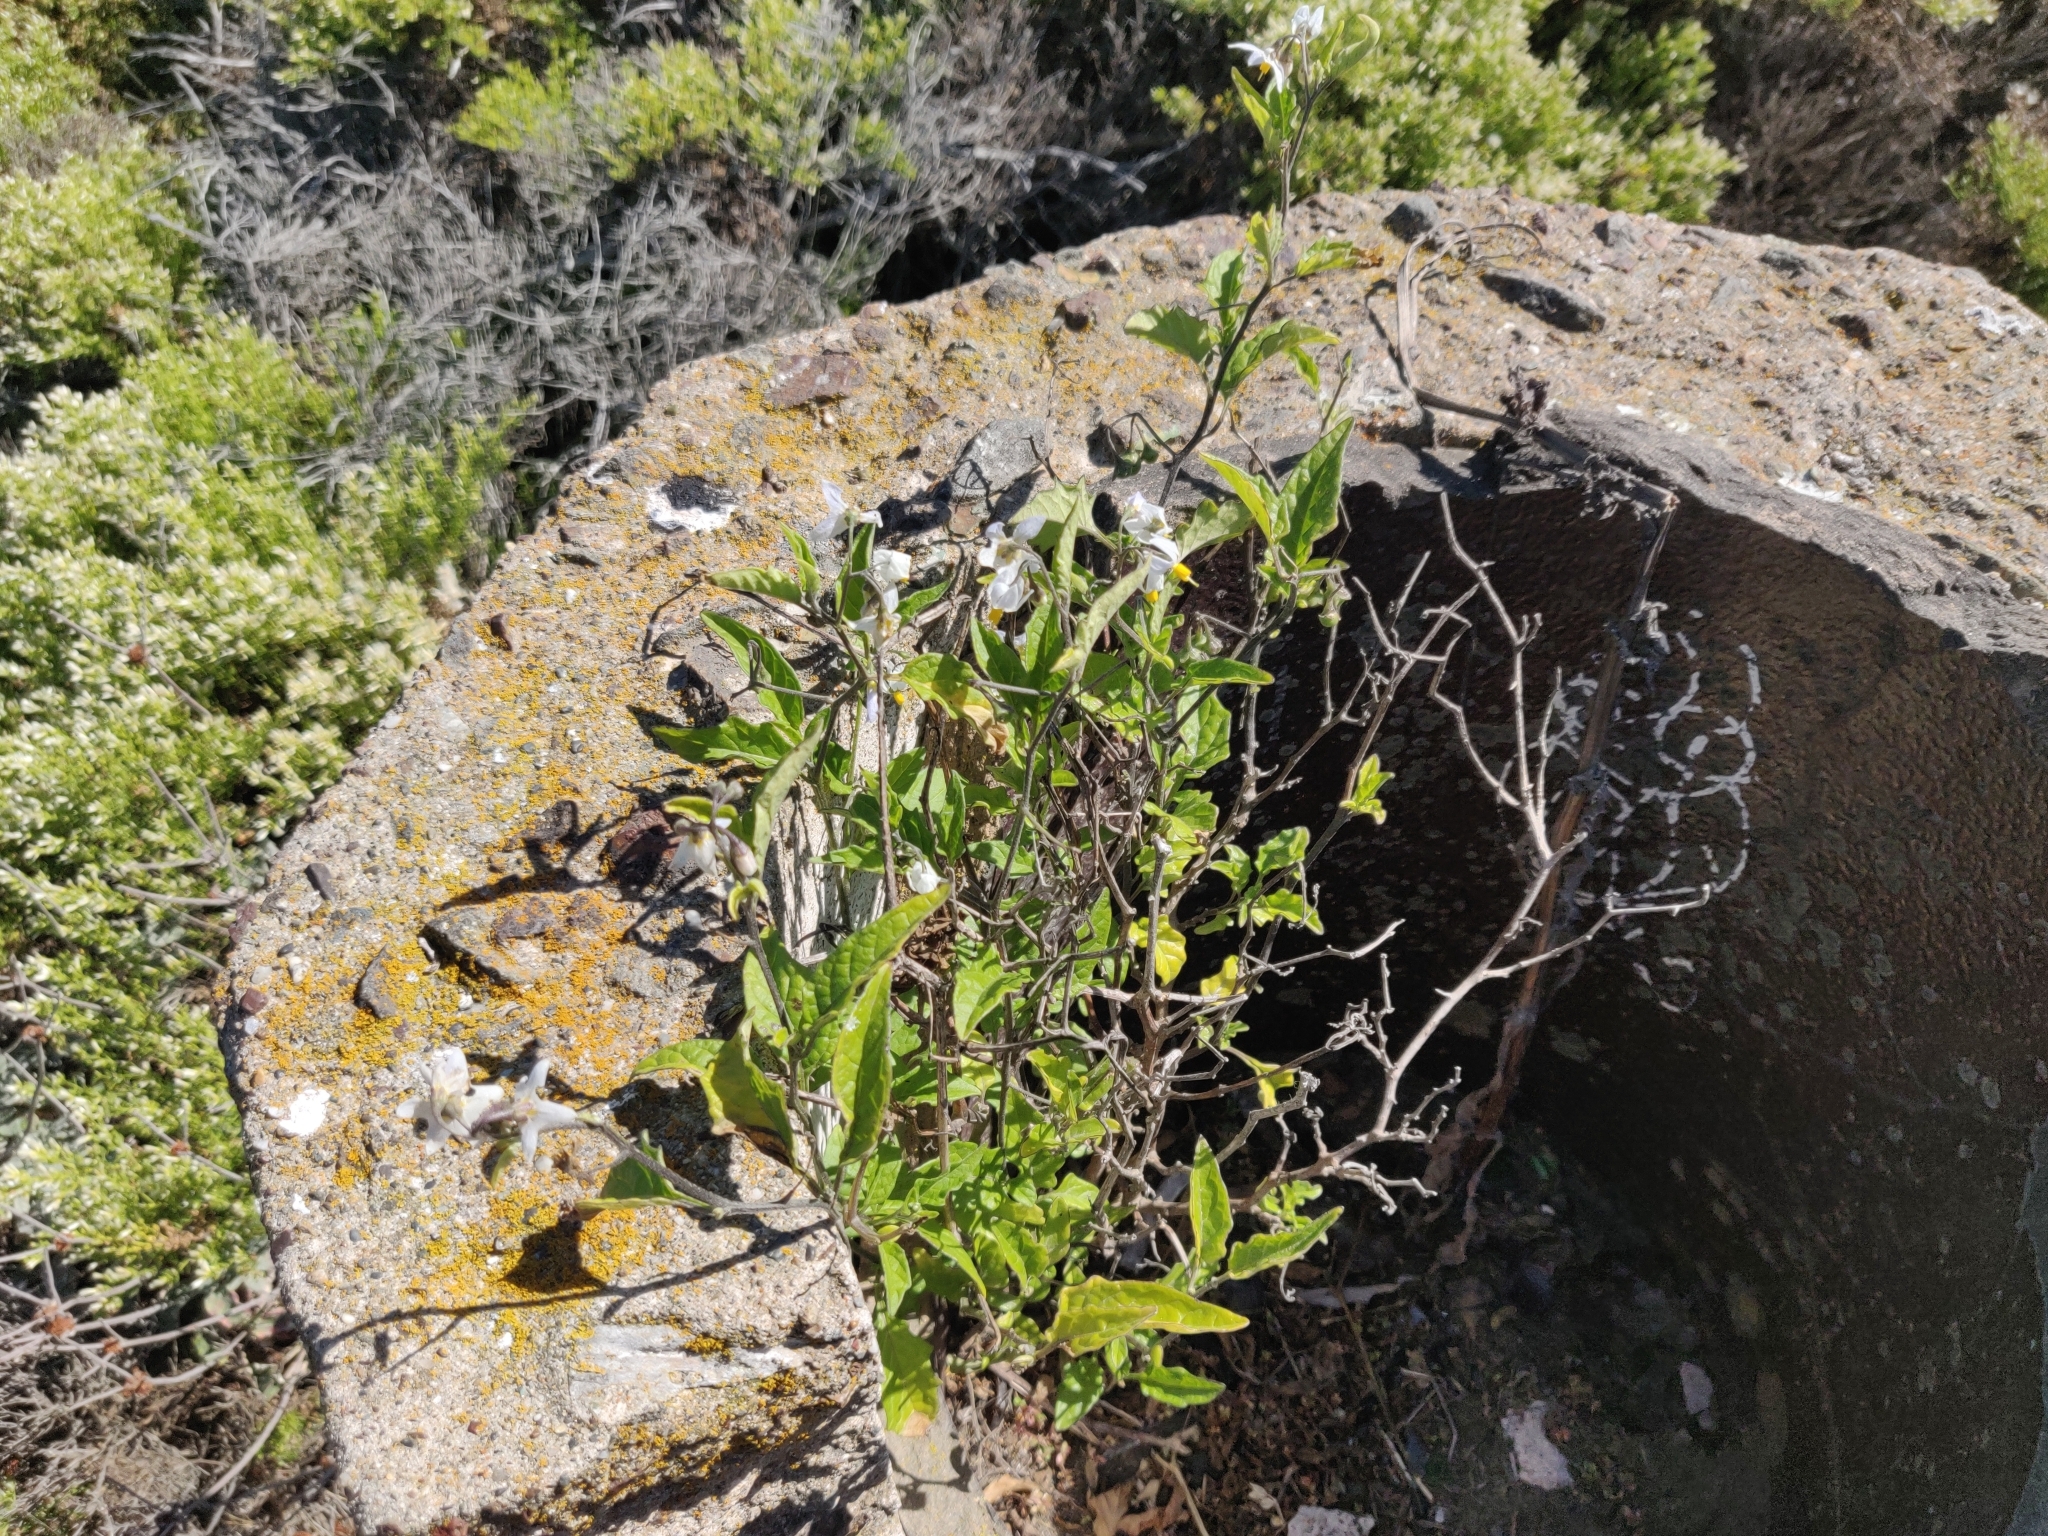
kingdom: Plantae
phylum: Tracheophyta
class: Magnoliopsida
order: Solanales
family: Solanaceae
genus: Solanum
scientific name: Solanum furcatum
